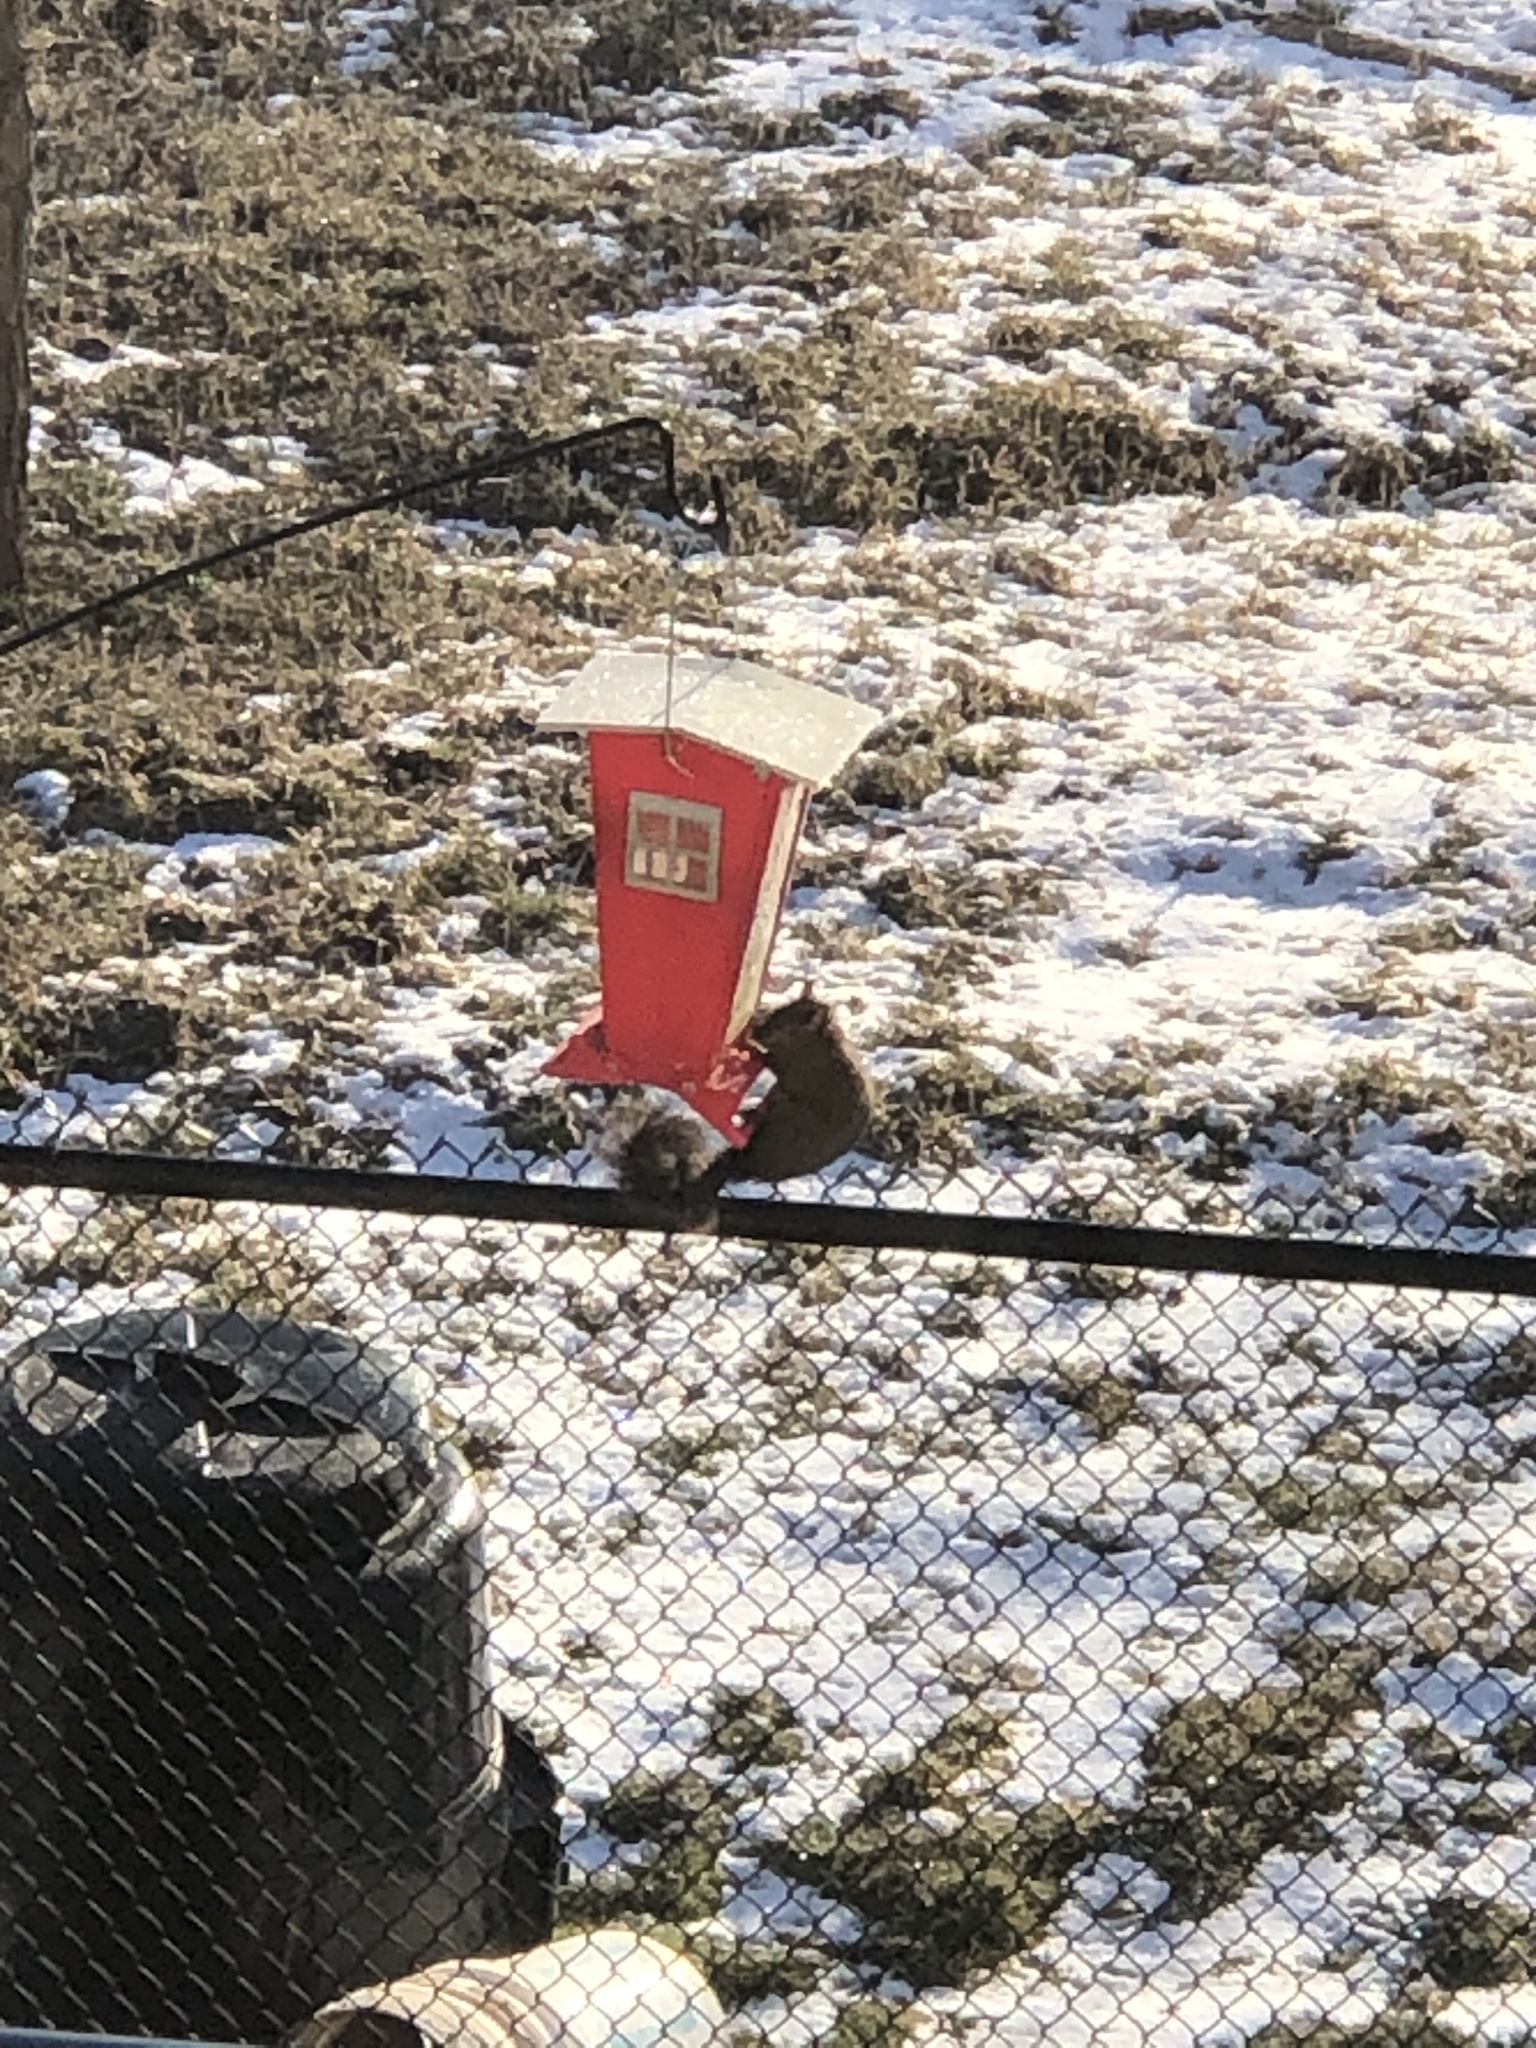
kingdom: Animalia
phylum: Chordata
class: Mammalia
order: Rodentia
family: Sciuridae
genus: Sciurus
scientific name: Sciurus carolinensis
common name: Eastern gray squirrel
